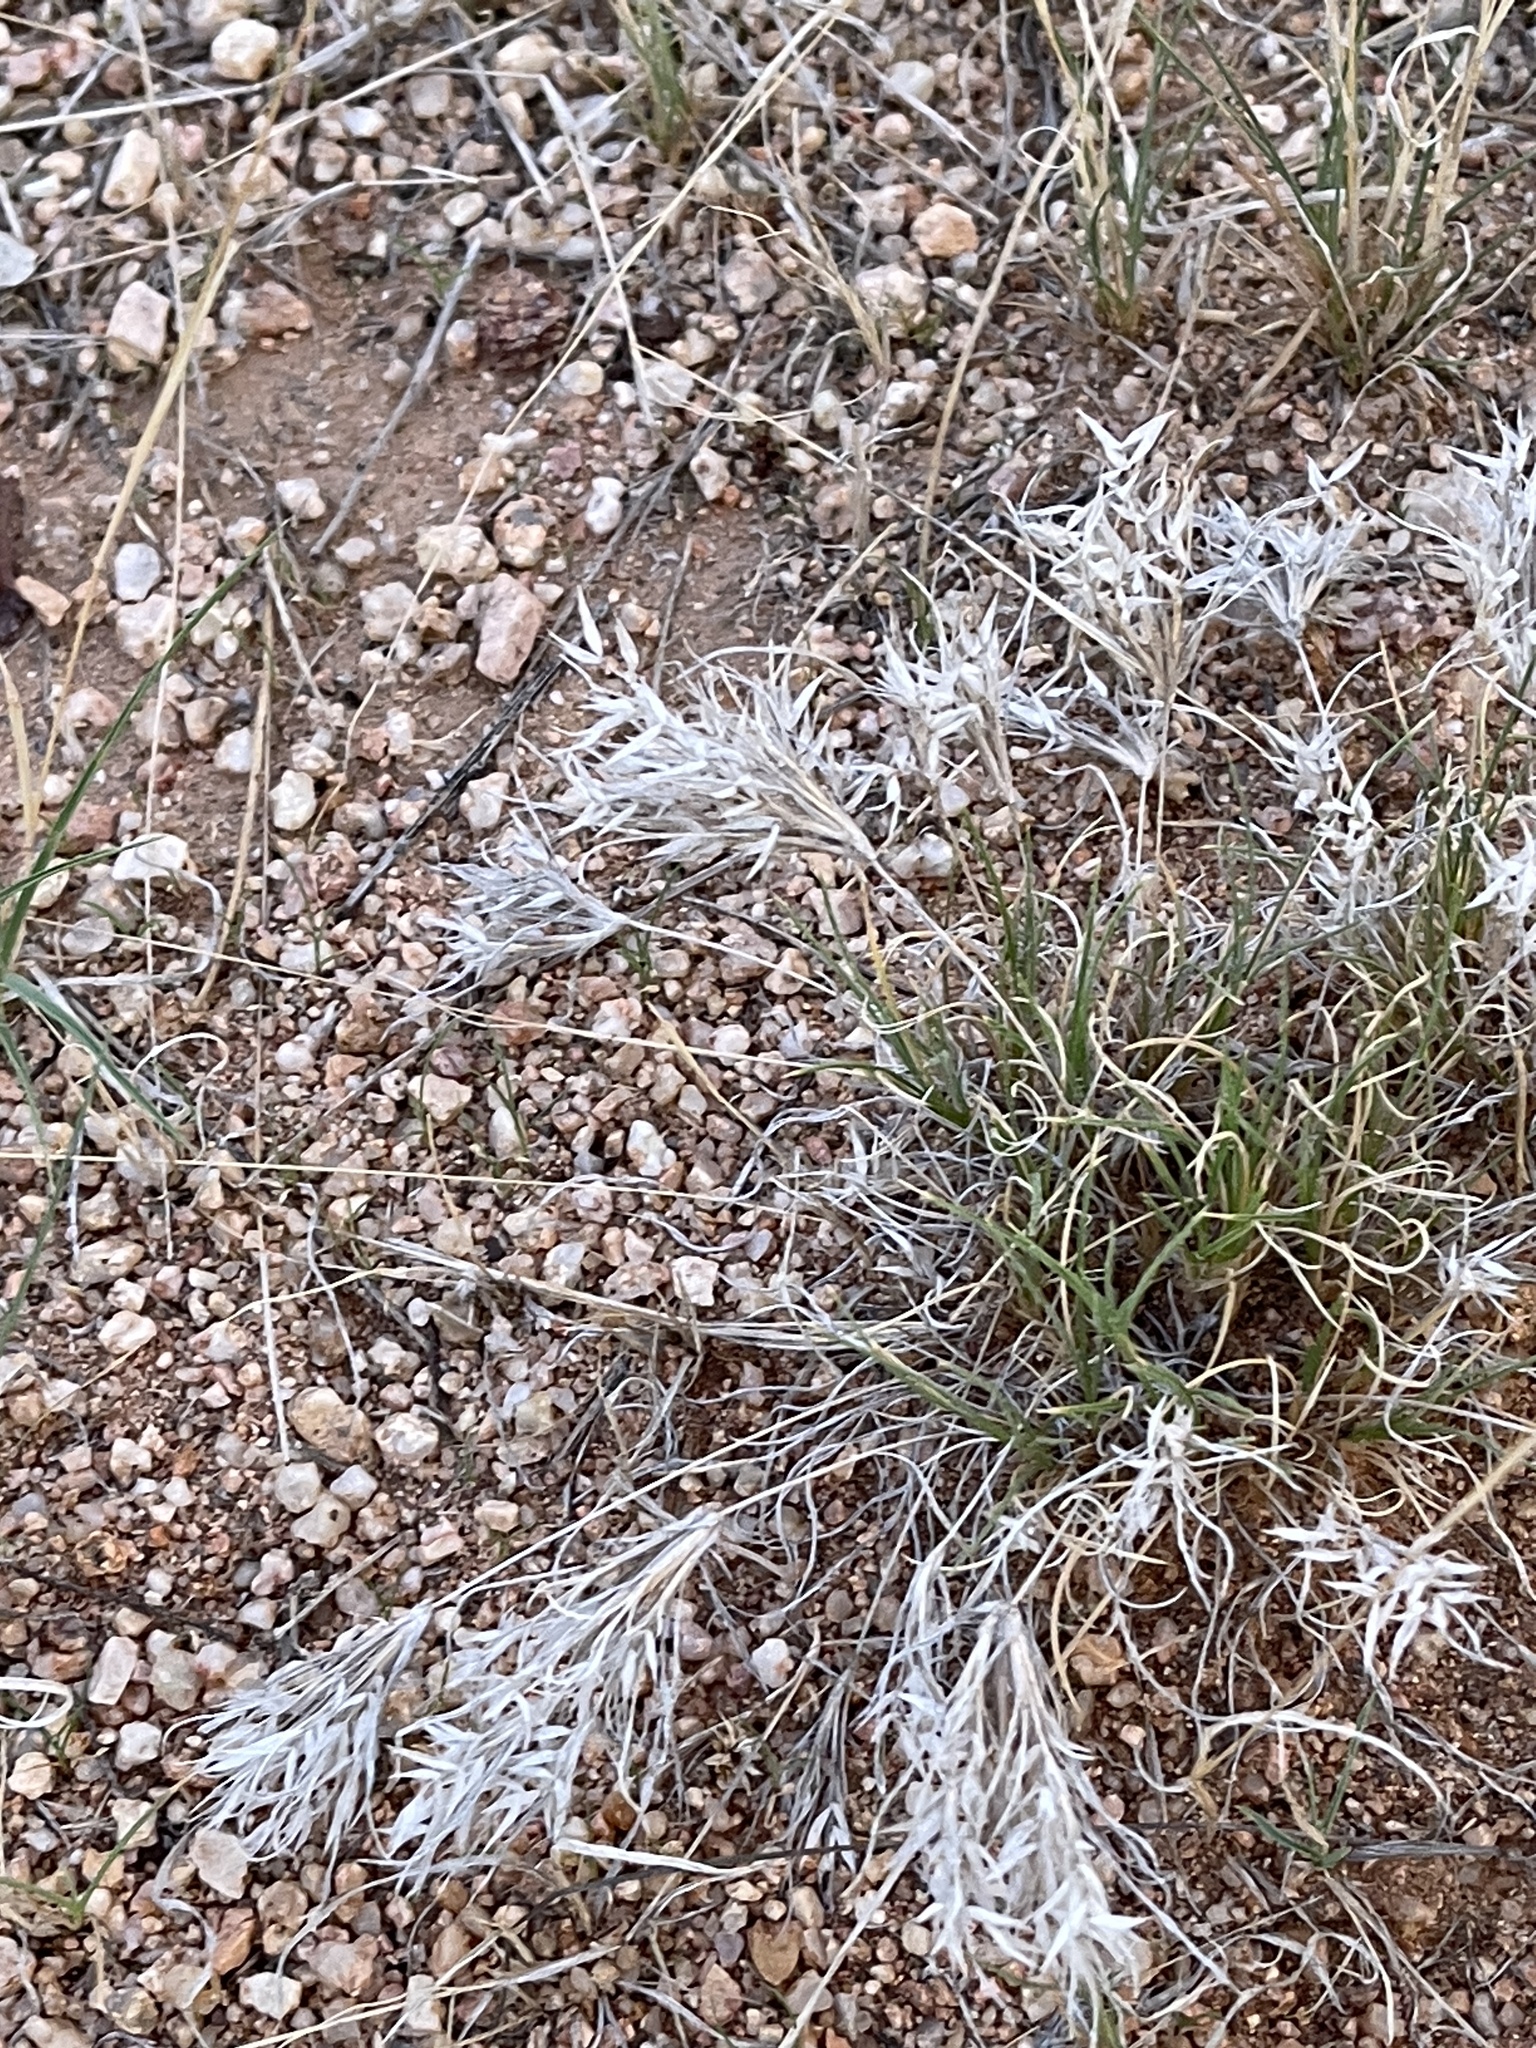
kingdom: Plantae
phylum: Tracheophyta
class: Liliopsida
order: Poales
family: Poaceae
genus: Dasyochloa
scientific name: Dasyochloa pulchella
